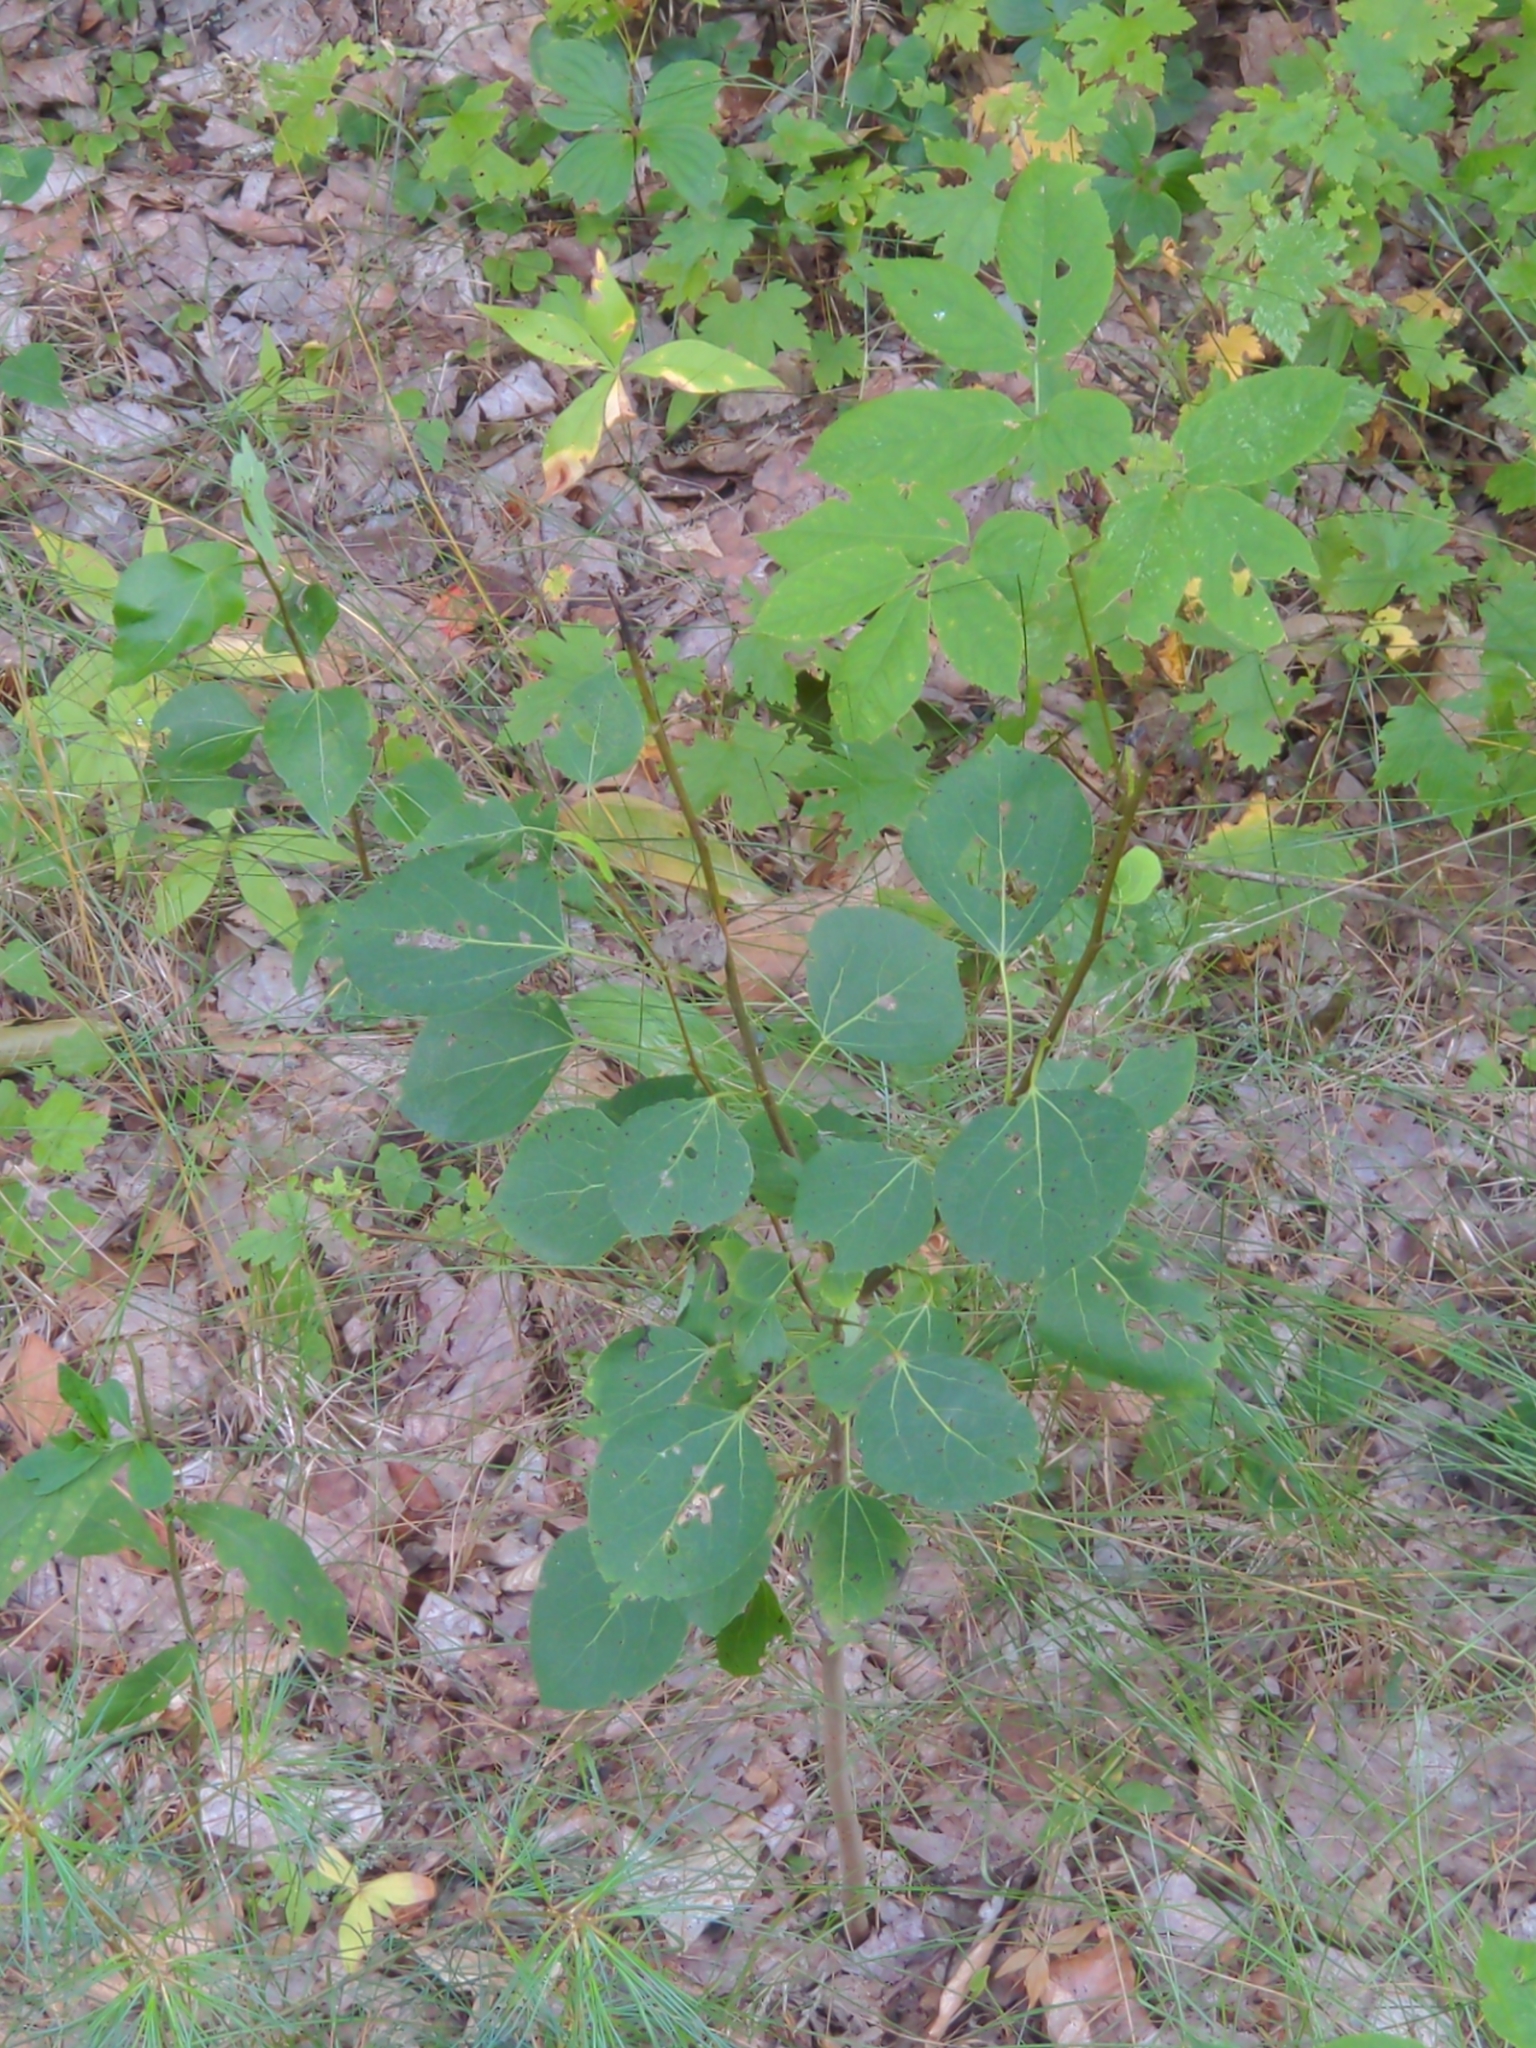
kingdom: Plantae
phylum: Tracheophyta
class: Magnoliopsida
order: Malpighiales
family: Salicaceae
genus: Populus
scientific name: Populus tremuloides
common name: Quaking aspen
